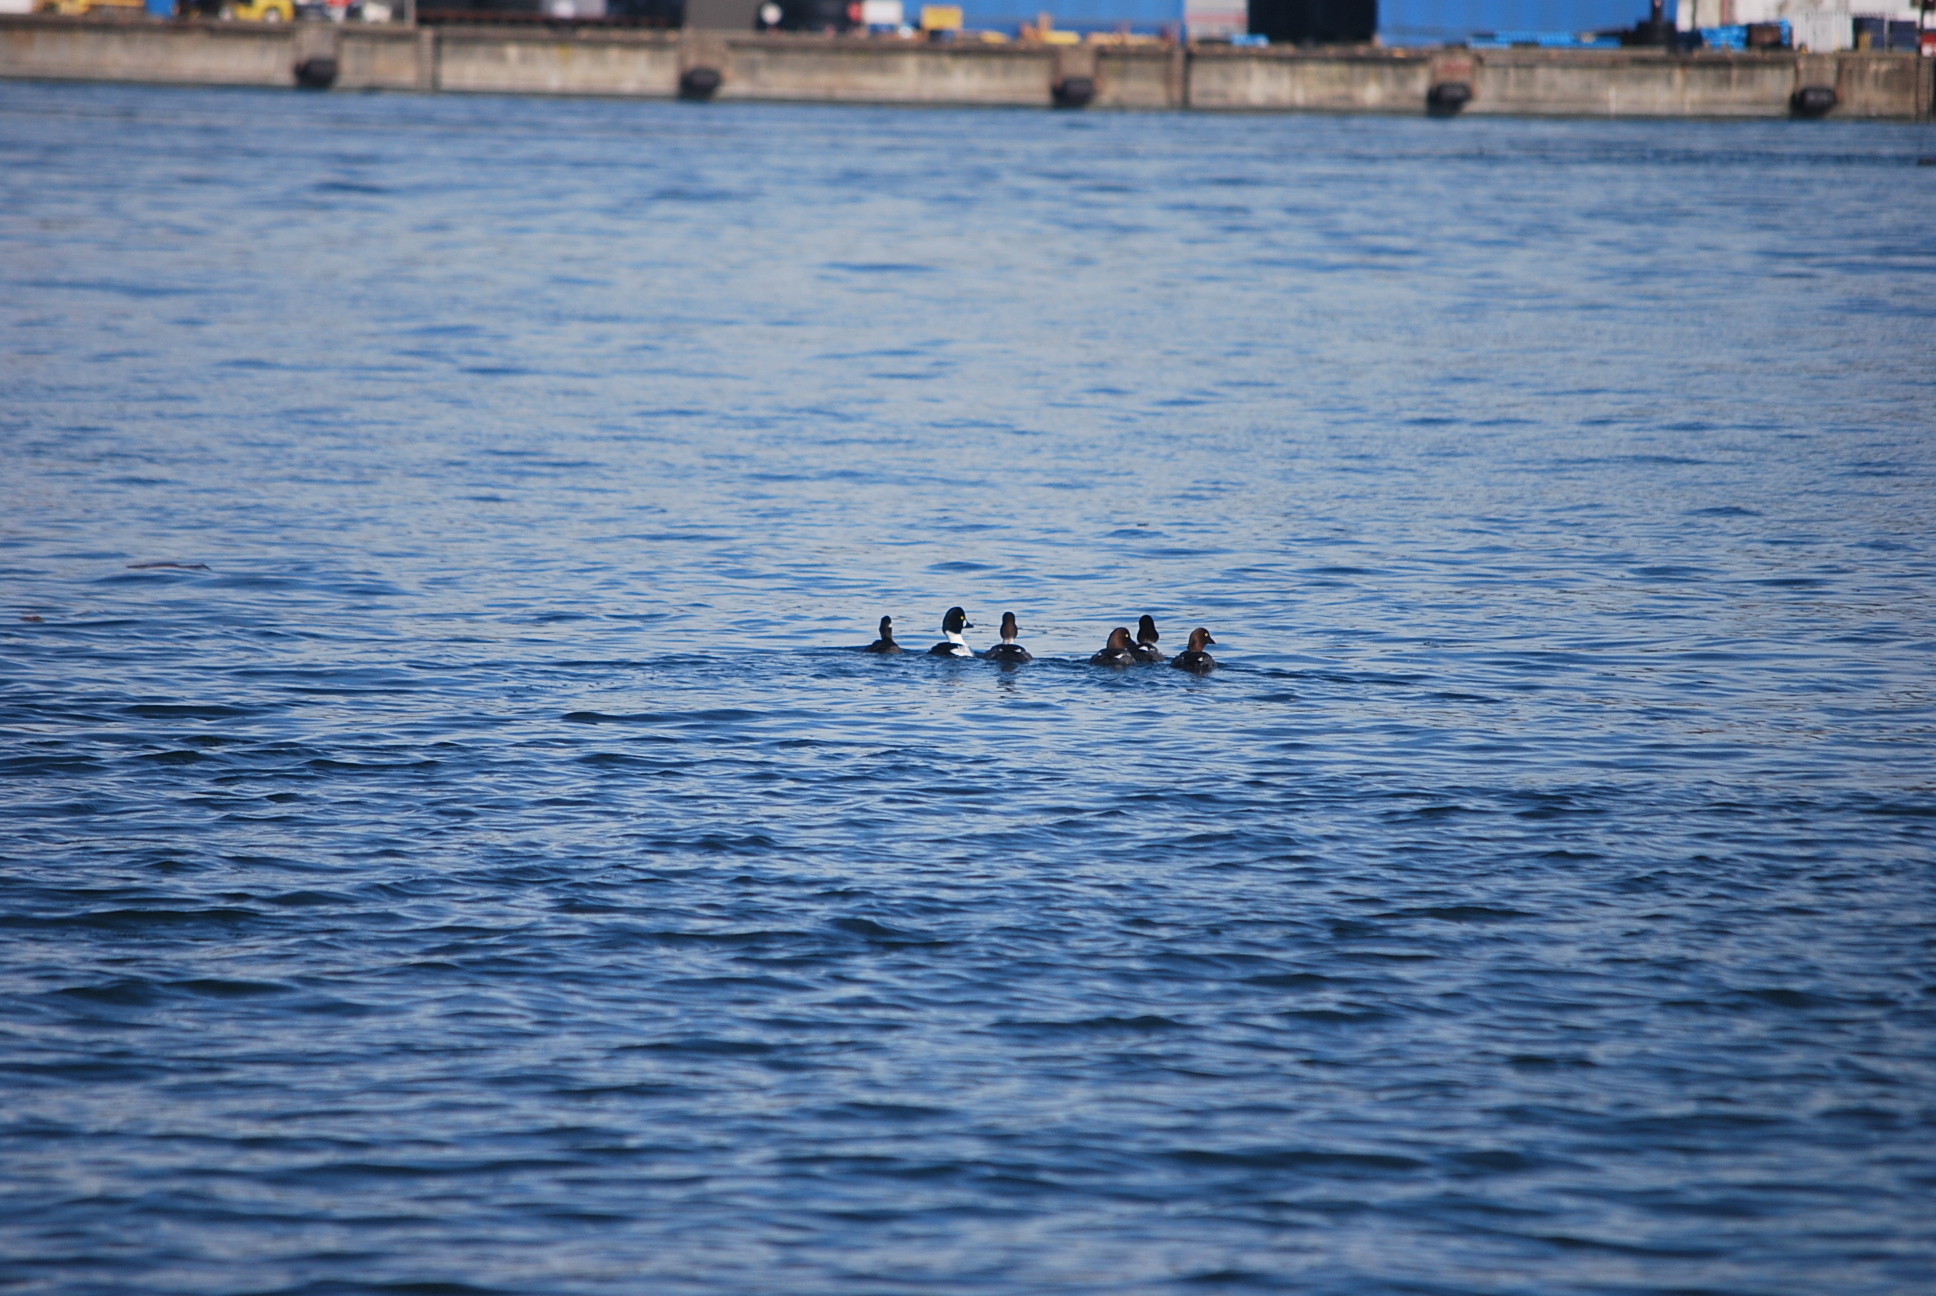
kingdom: Animalia
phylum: Chordata
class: Aves
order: Anseriformes
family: Anatidae
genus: Bucephala
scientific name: Bucephala clangula
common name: Common goldeneye
